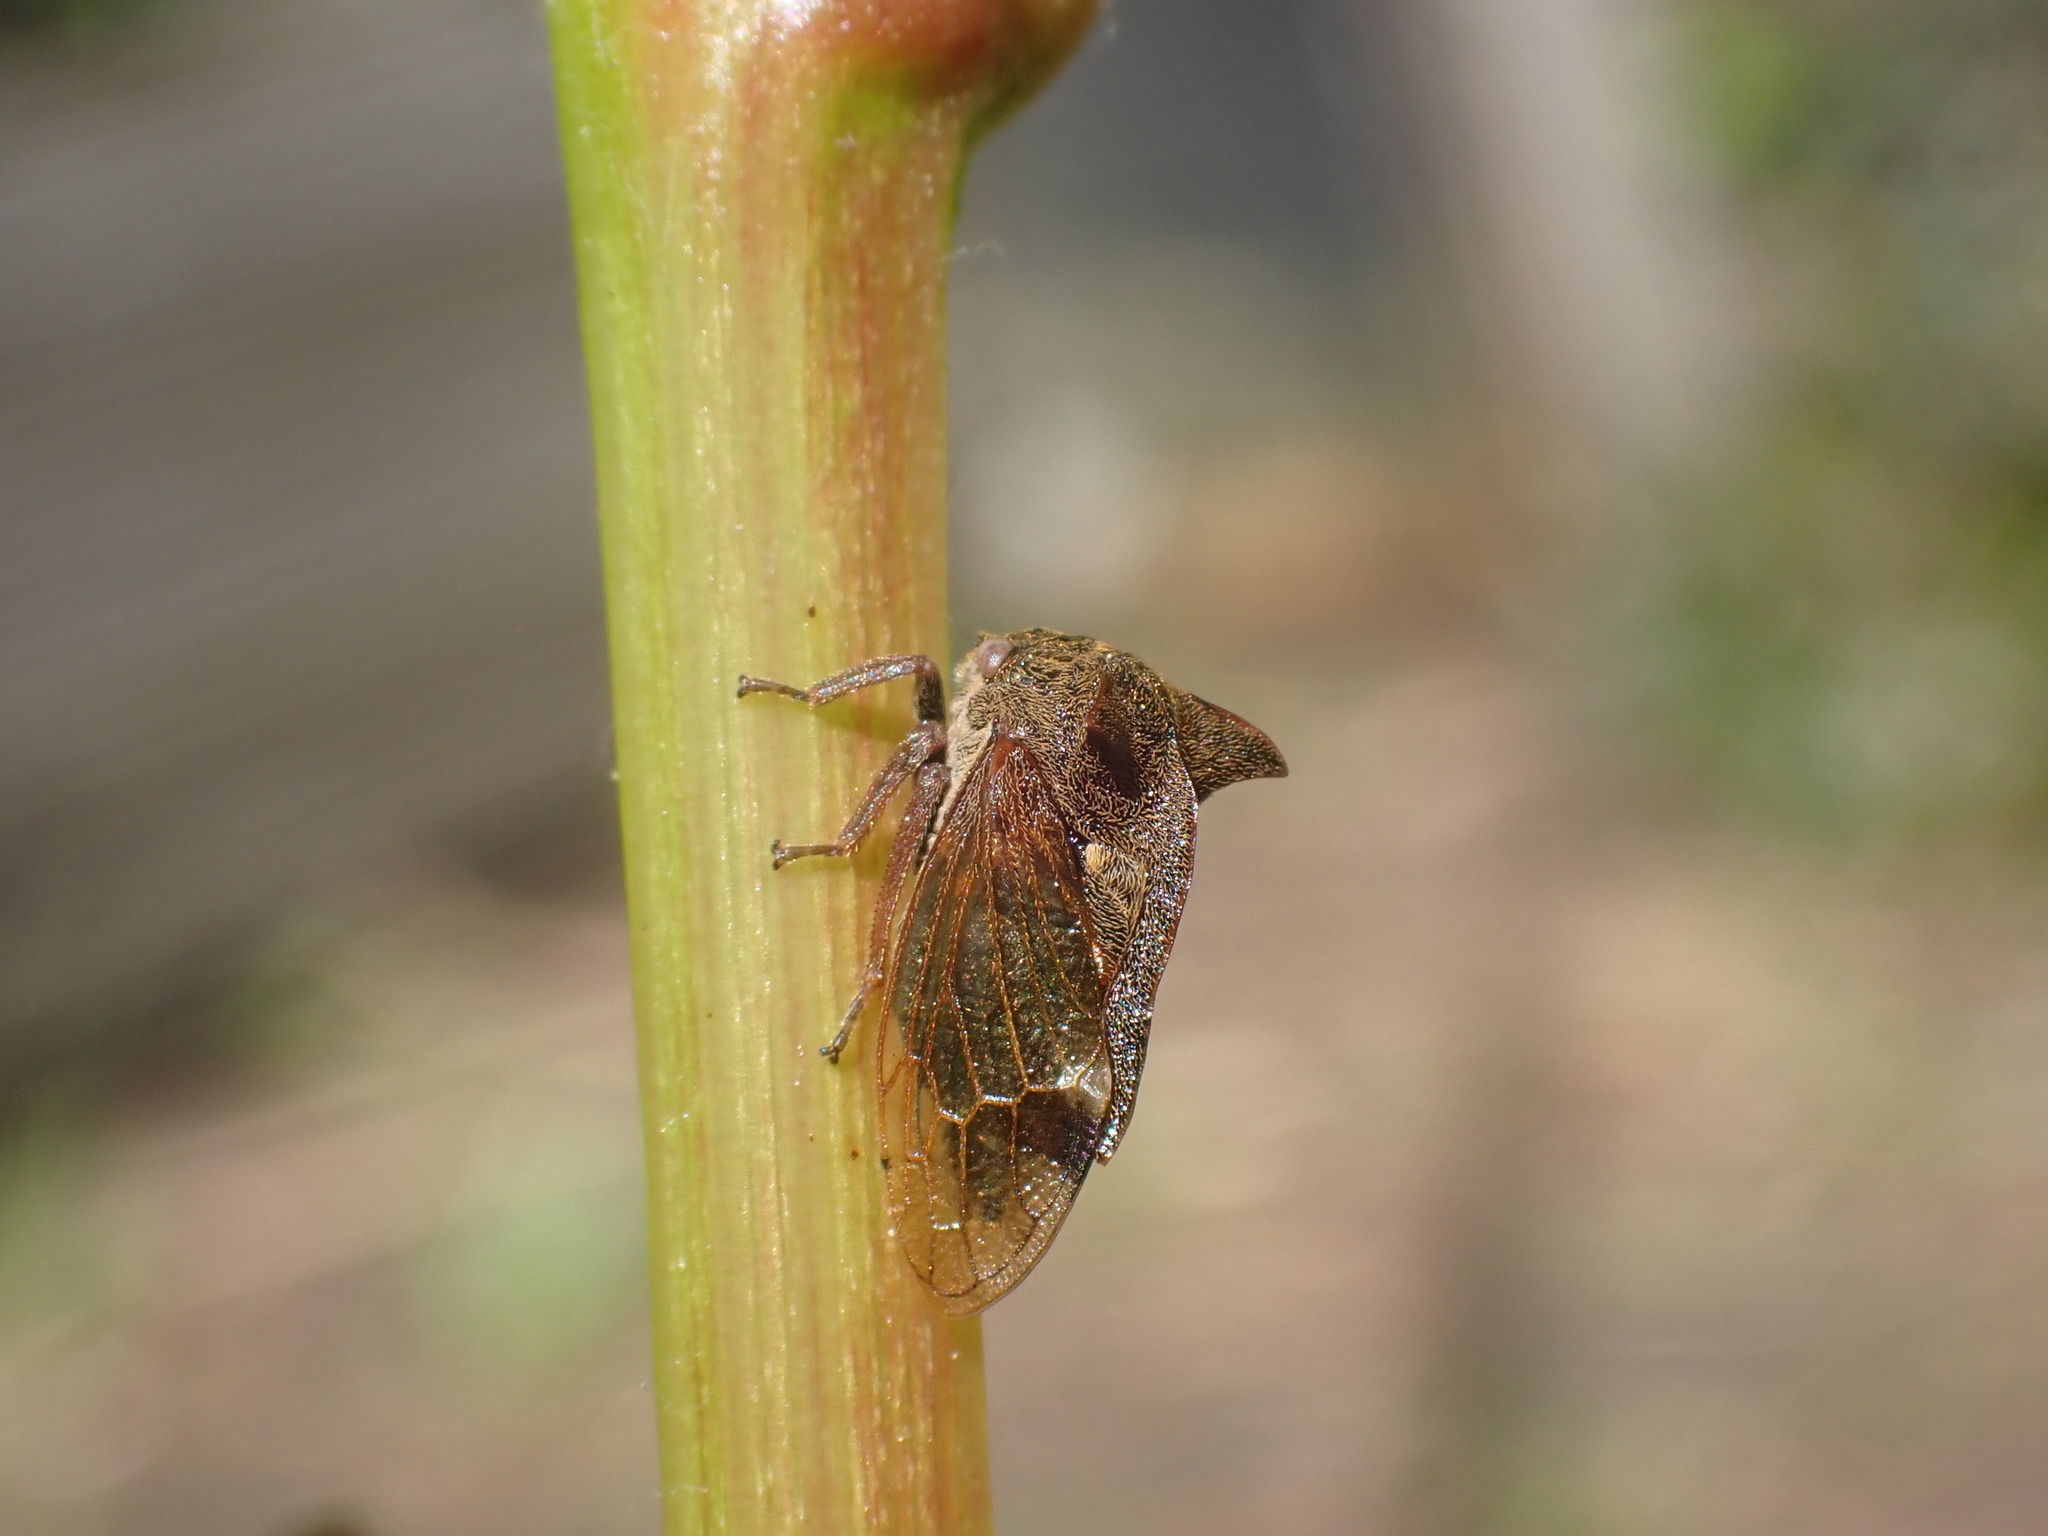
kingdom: Animalia
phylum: Arthropoda
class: Insecta
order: Hemiptera
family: Membracidae
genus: Centrotus
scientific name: Centrotus cornuta
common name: Treehopper
